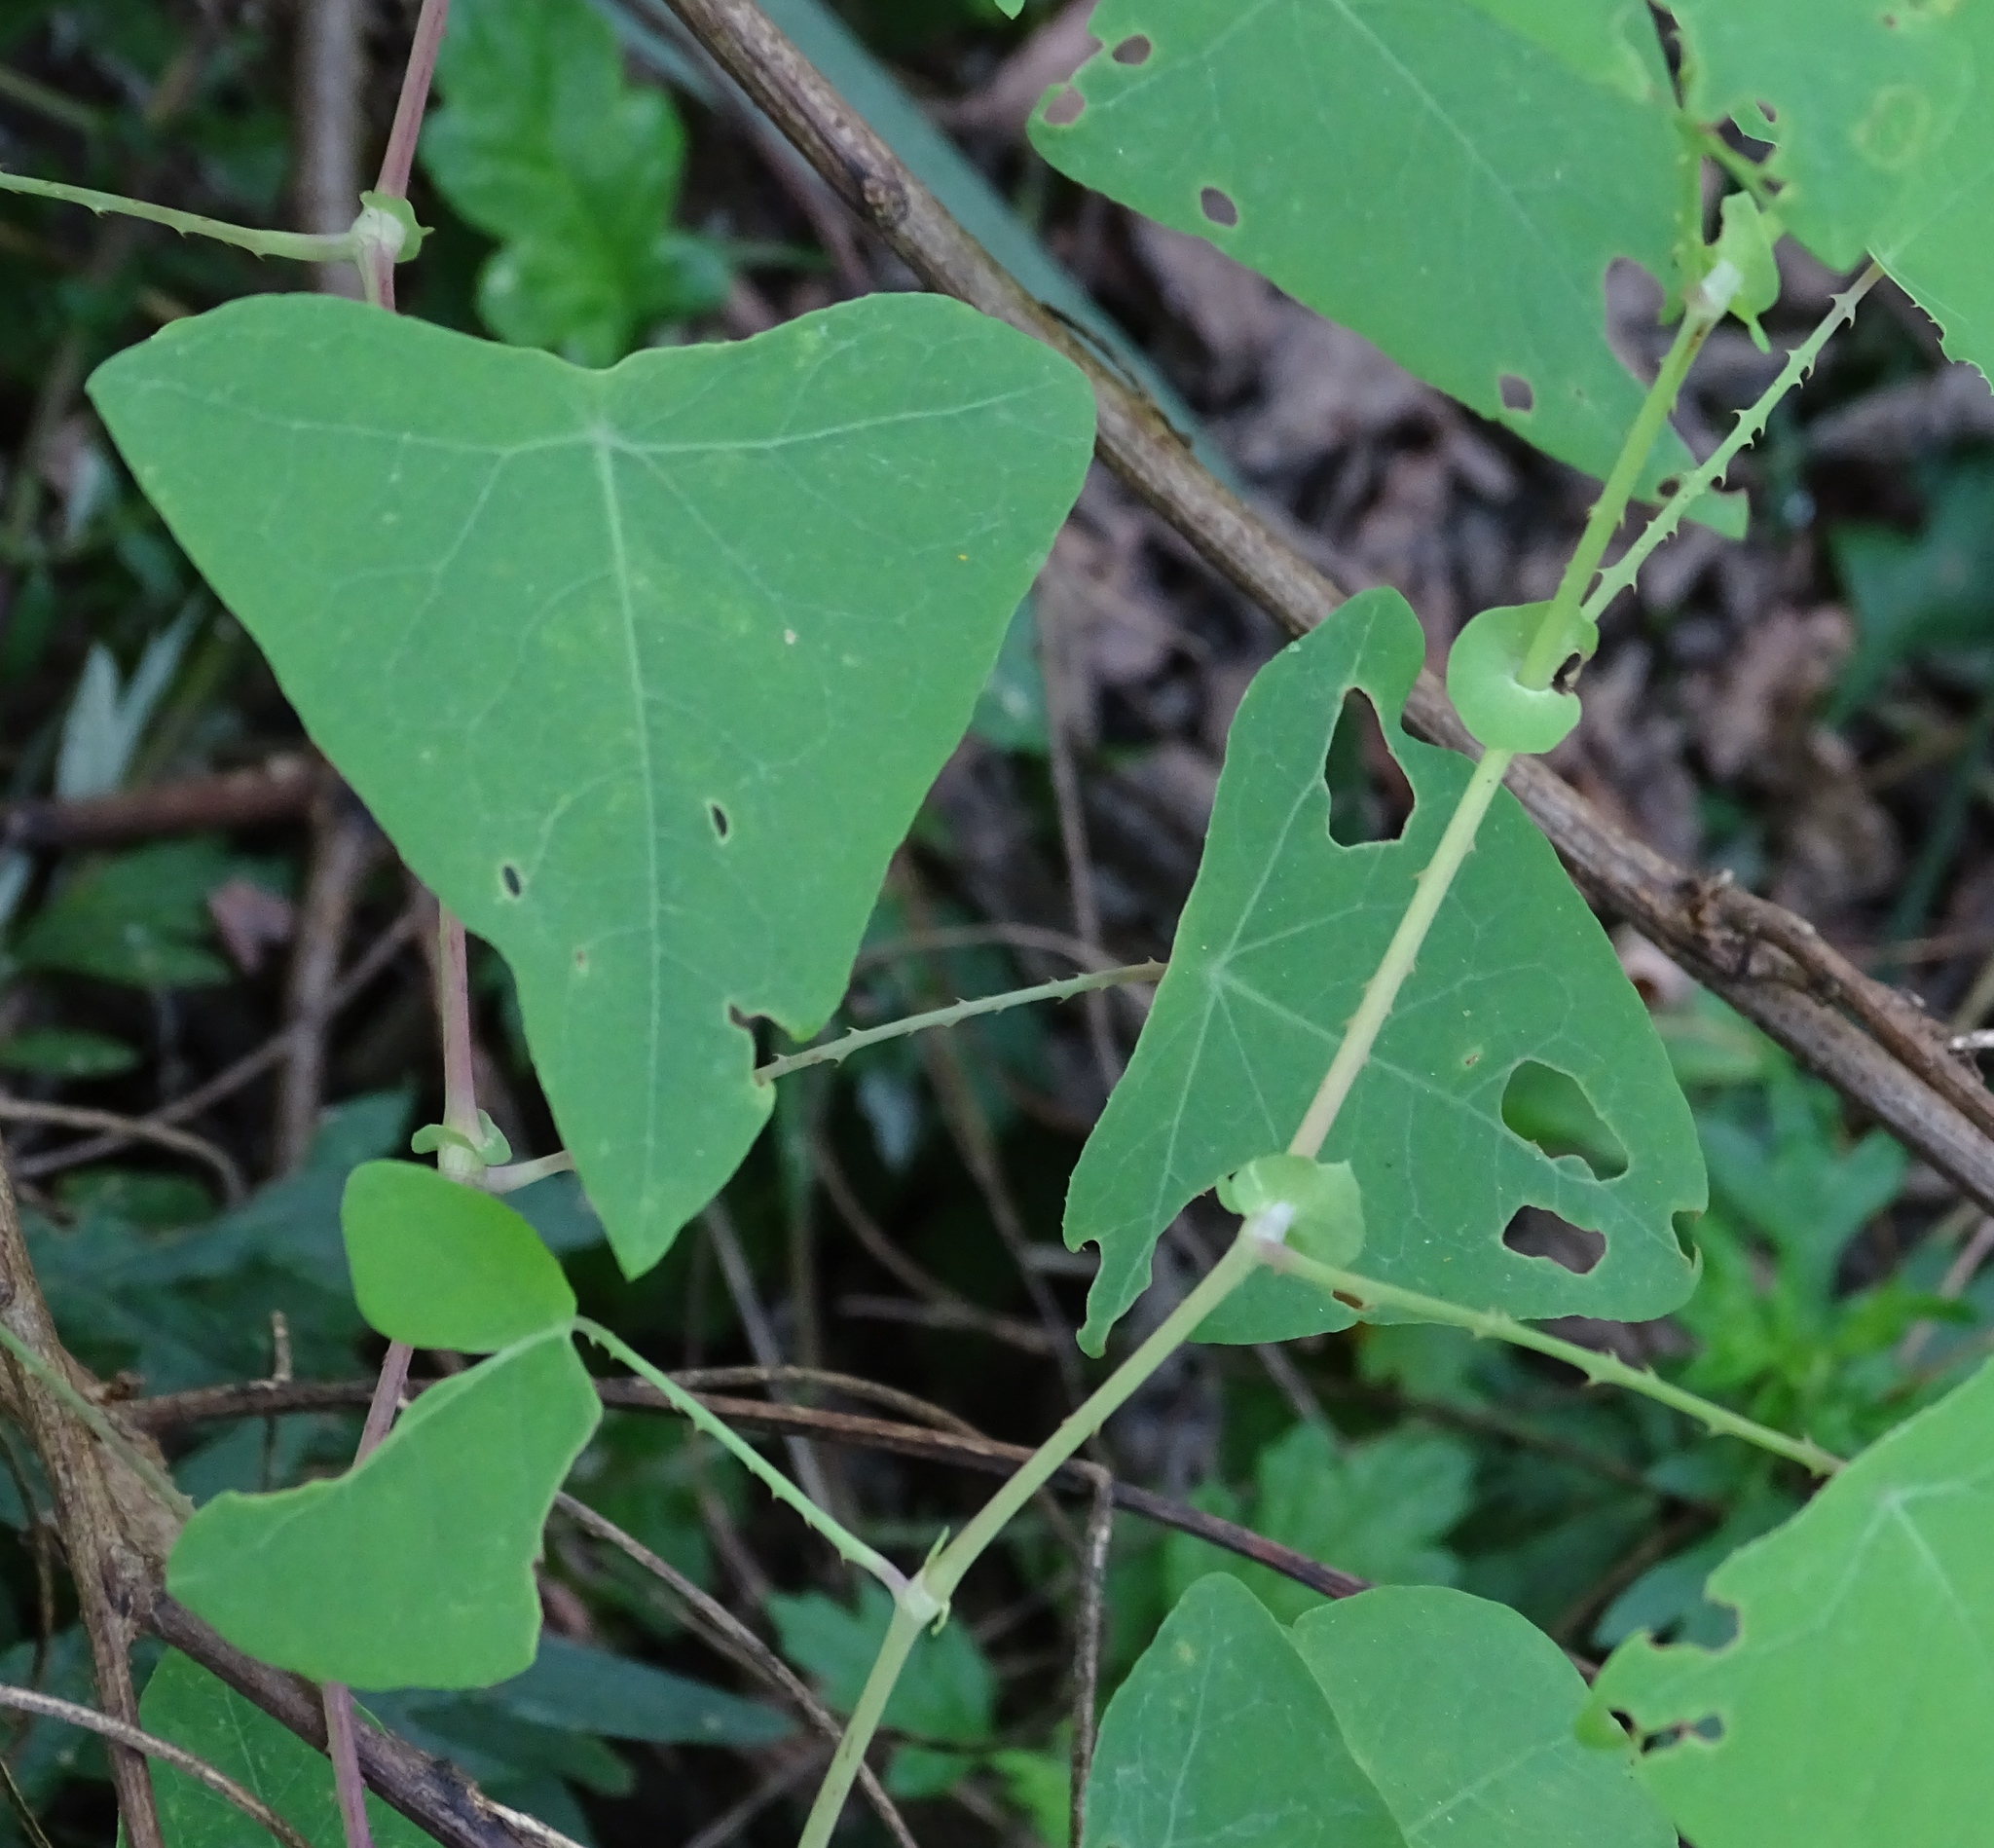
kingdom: Plantae
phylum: Tracheophyta
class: Magnoliopsida
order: Caryophyllales
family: Polygonaceae
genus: Persicaria
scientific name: Persicaria perfoliata
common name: Asiatic tearthumb
